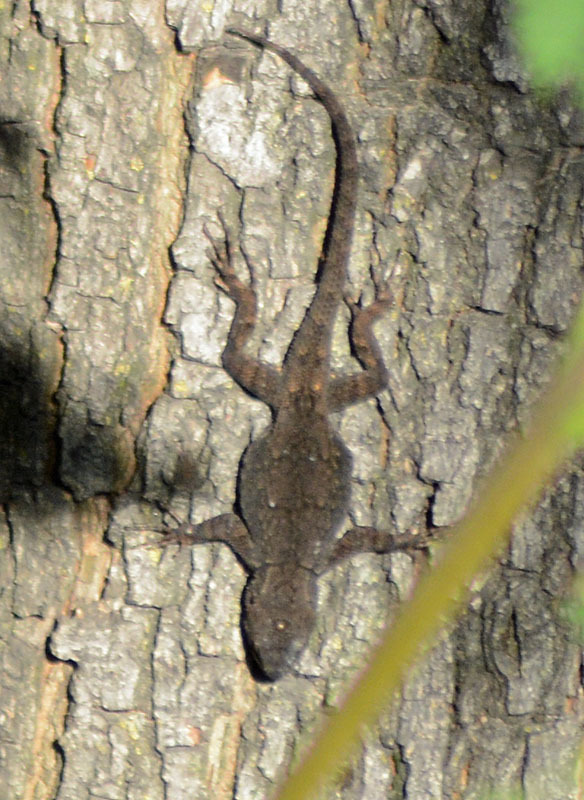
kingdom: Animalia
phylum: Chordata
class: Squamata
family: Phrynosomatidae
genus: Sceloporus
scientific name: Sceloporus grammicus
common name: Mesquite lizard
